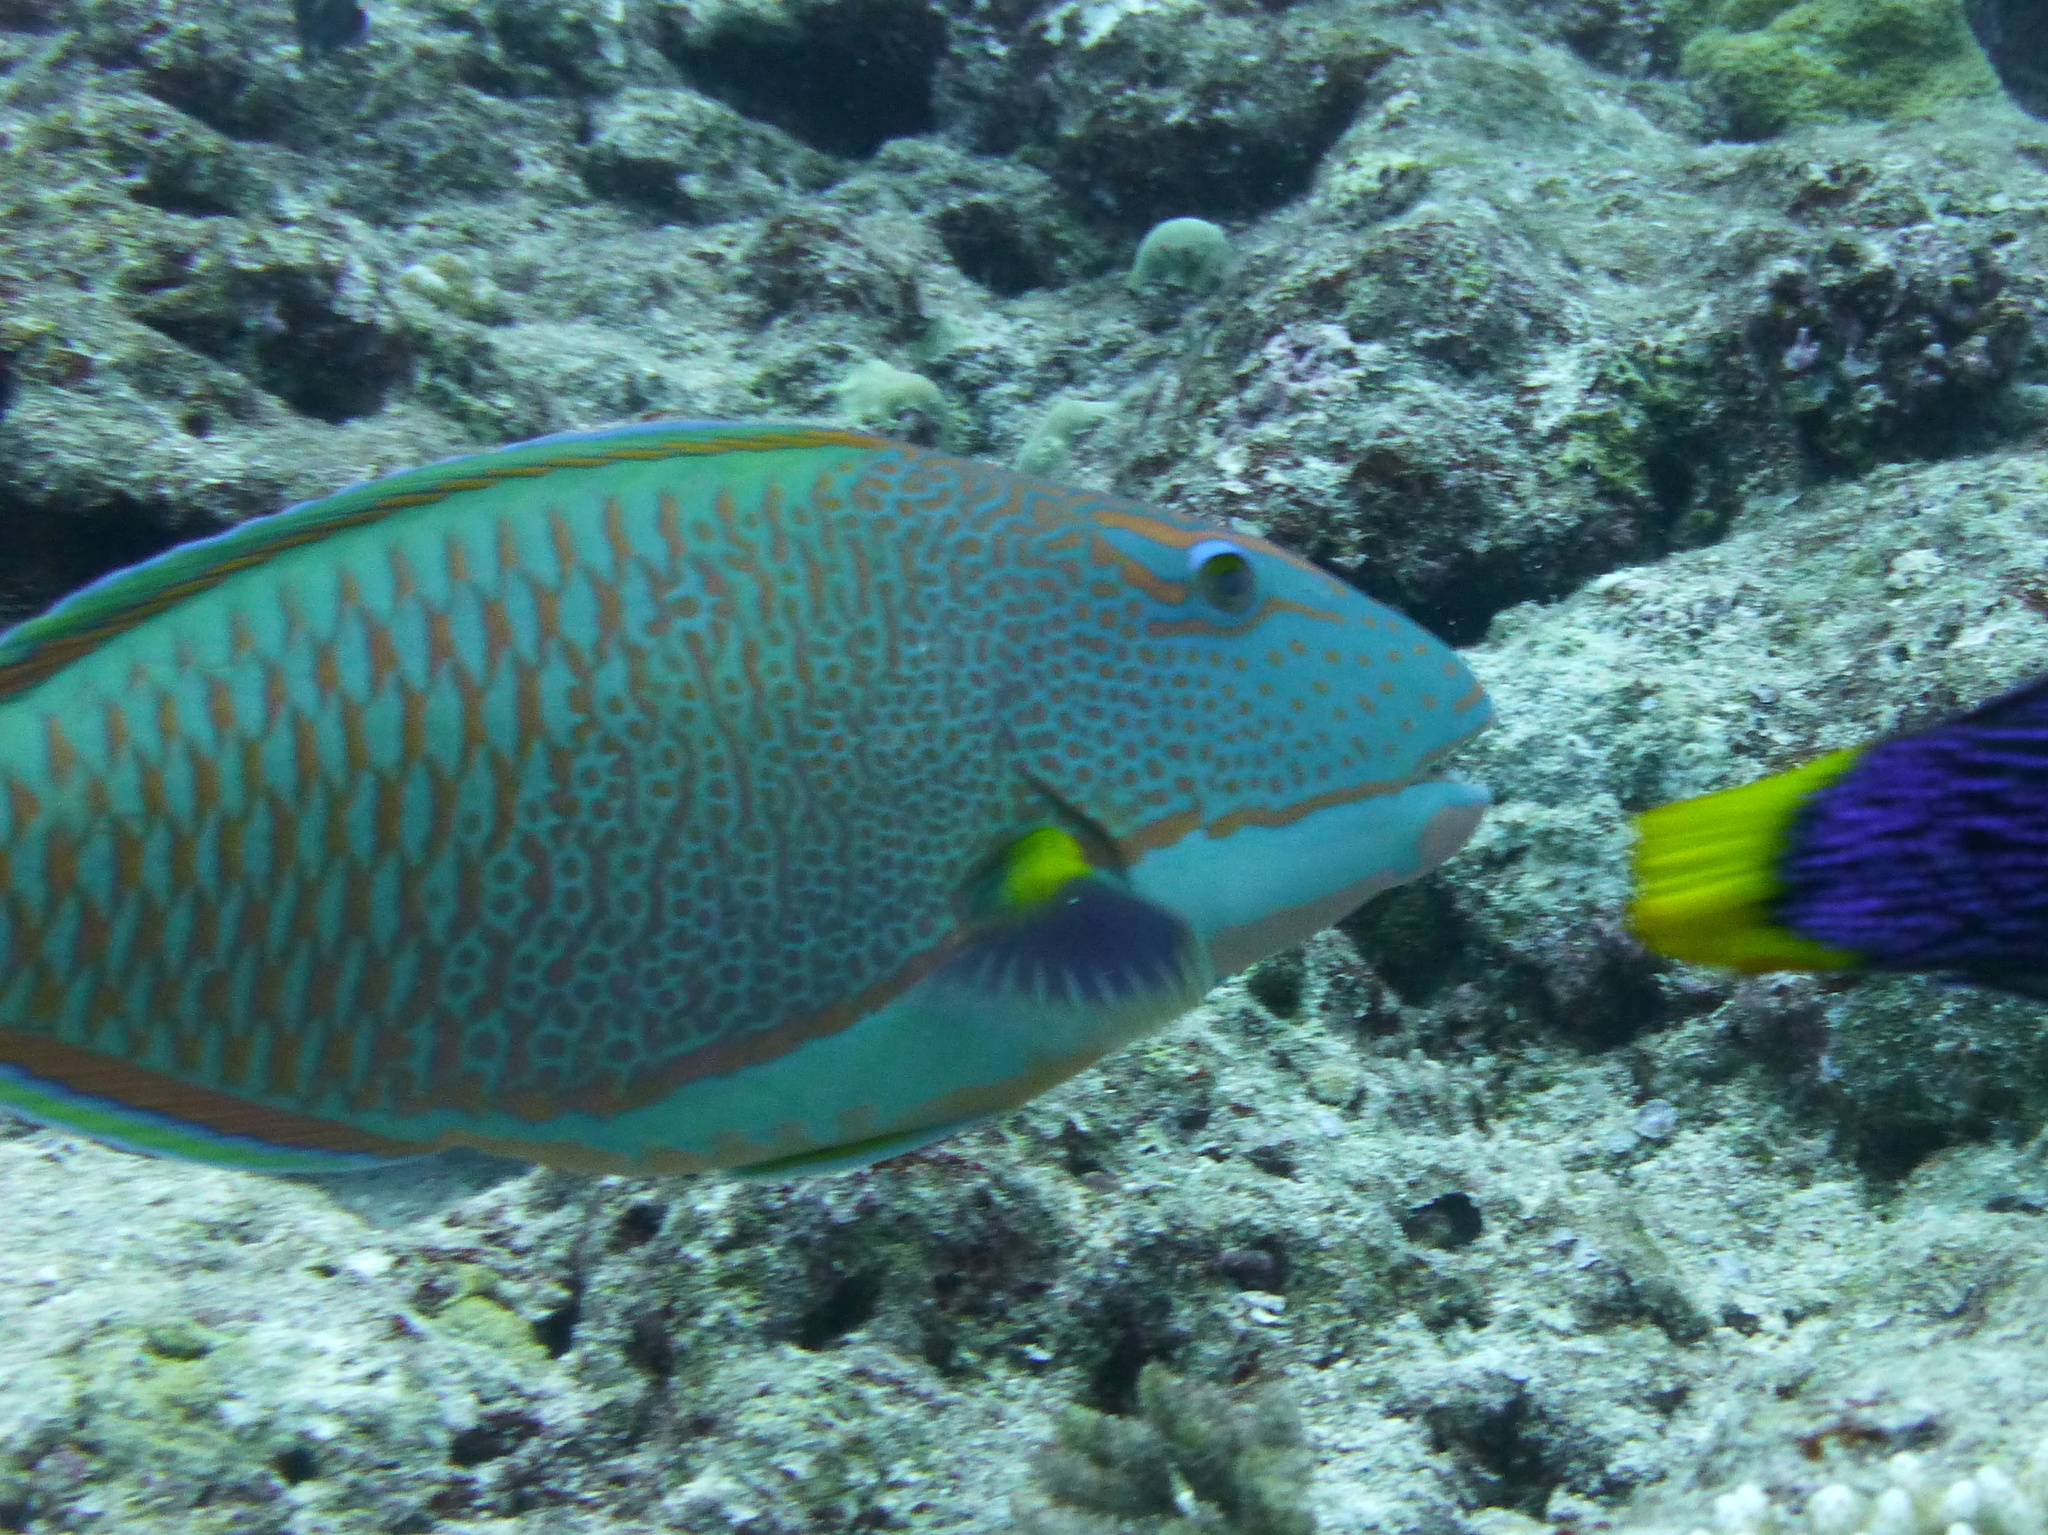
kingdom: Animalia
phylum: Chordata
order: Perciformes
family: Scaridae
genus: Cetoscarus
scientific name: Cetoscarus ocellatus
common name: Bicolor parrotfish
